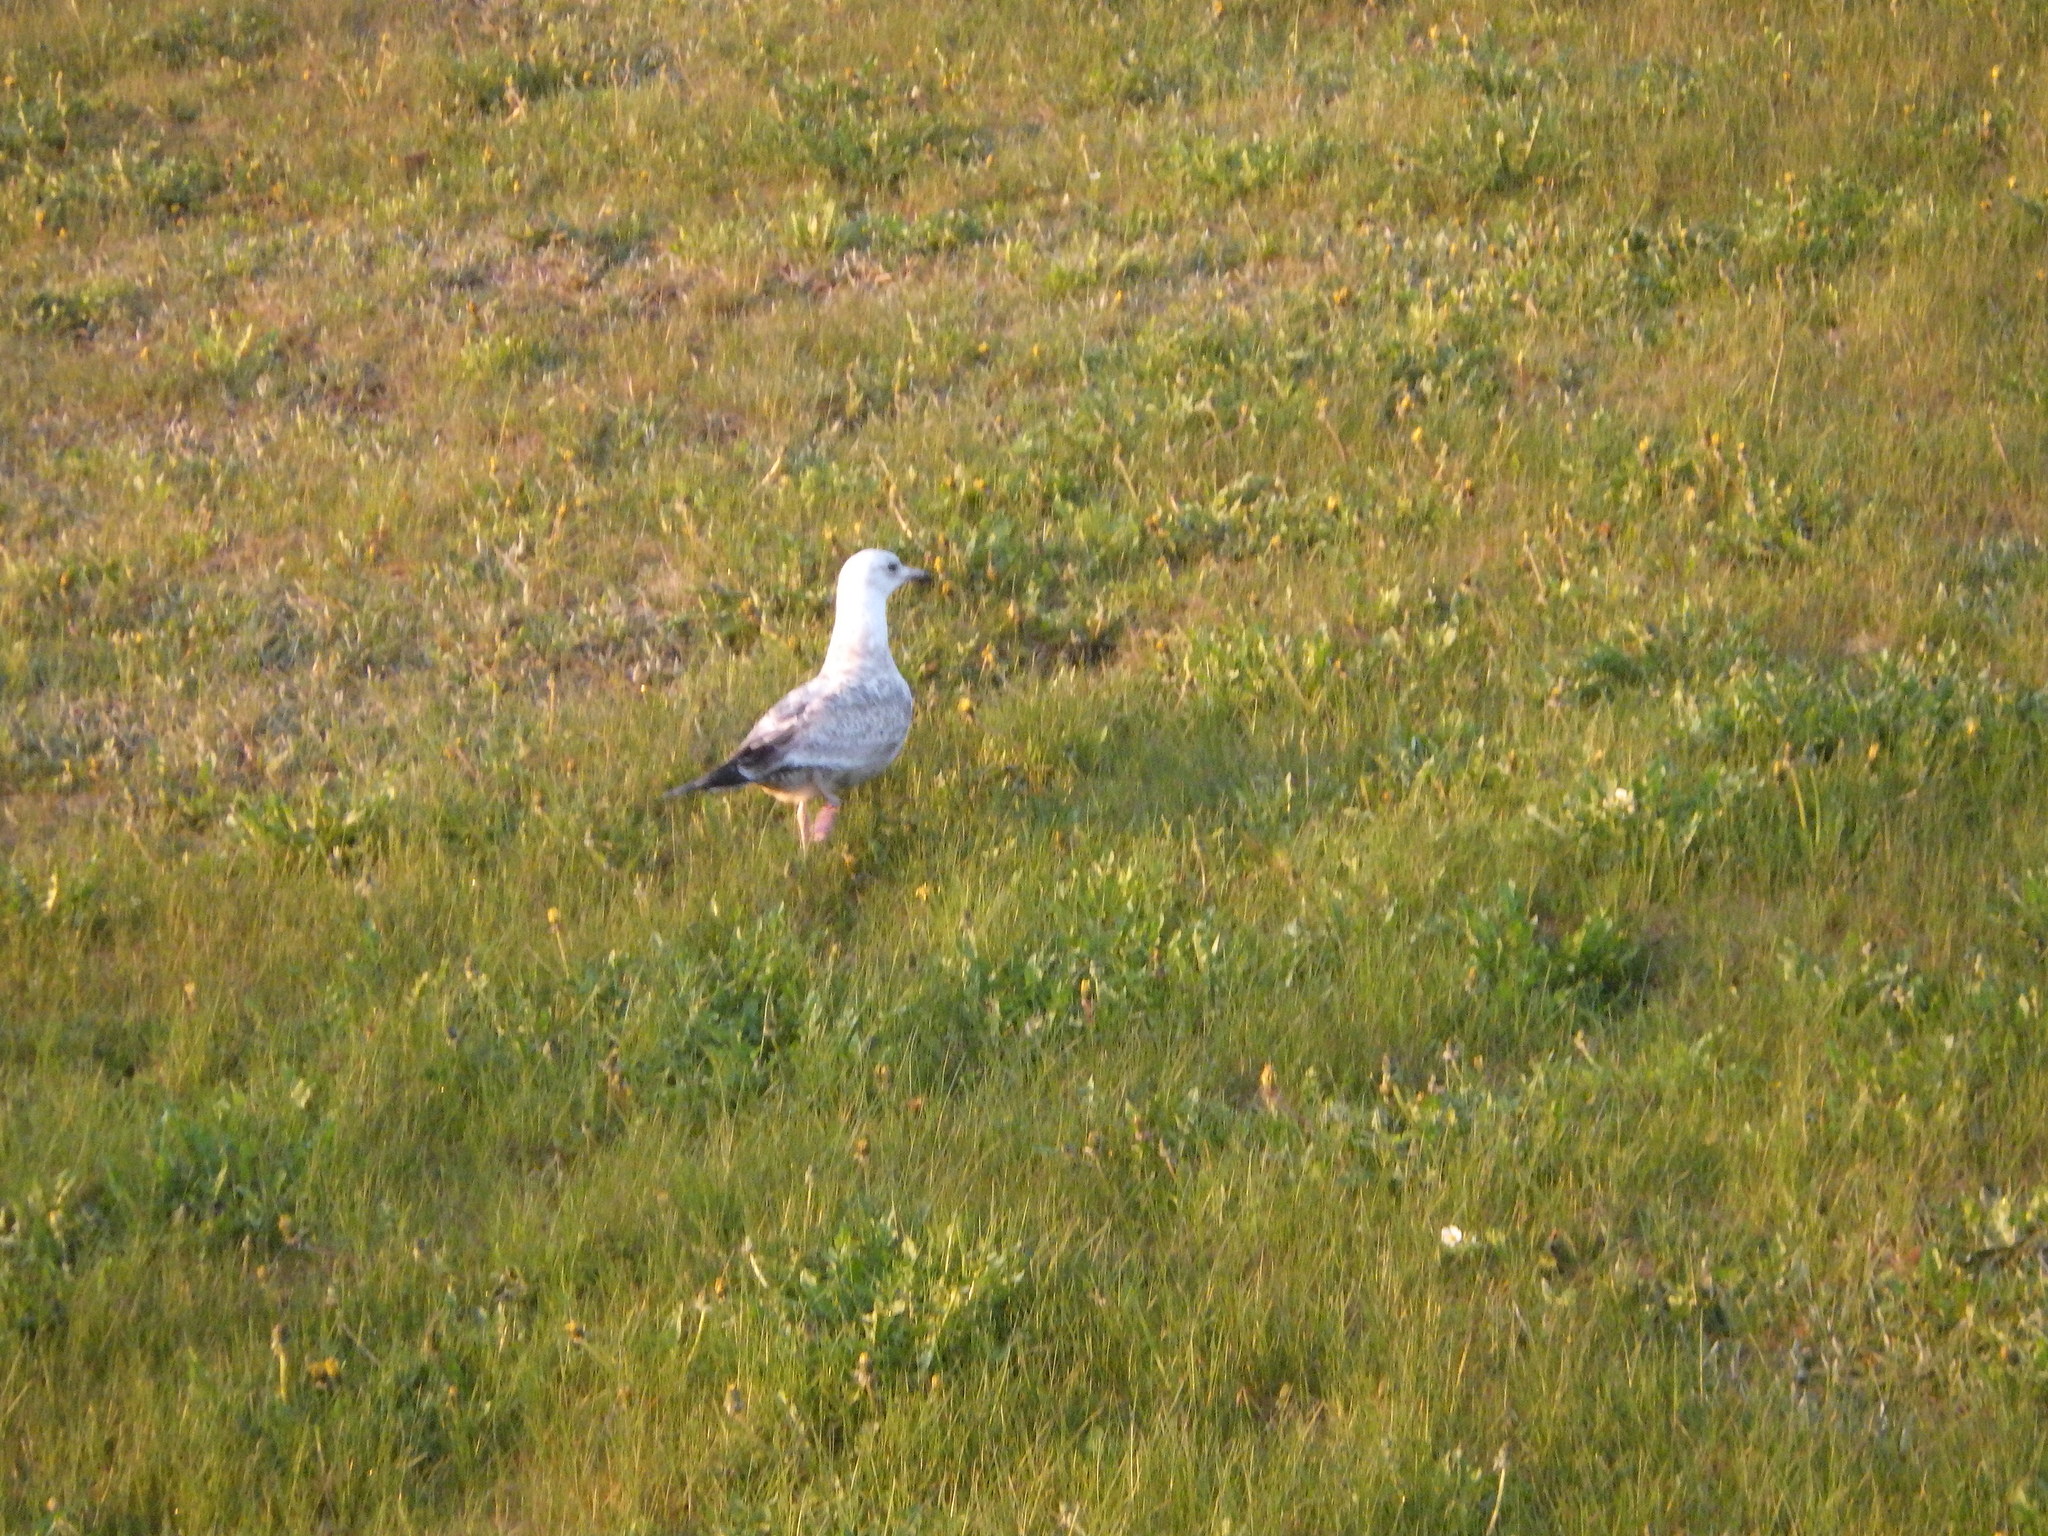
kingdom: Animalia
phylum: Chordata
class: Aves
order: Charadriiformes
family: Laridae
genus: Larus
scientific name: Larus argentatus
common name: Herring gull
